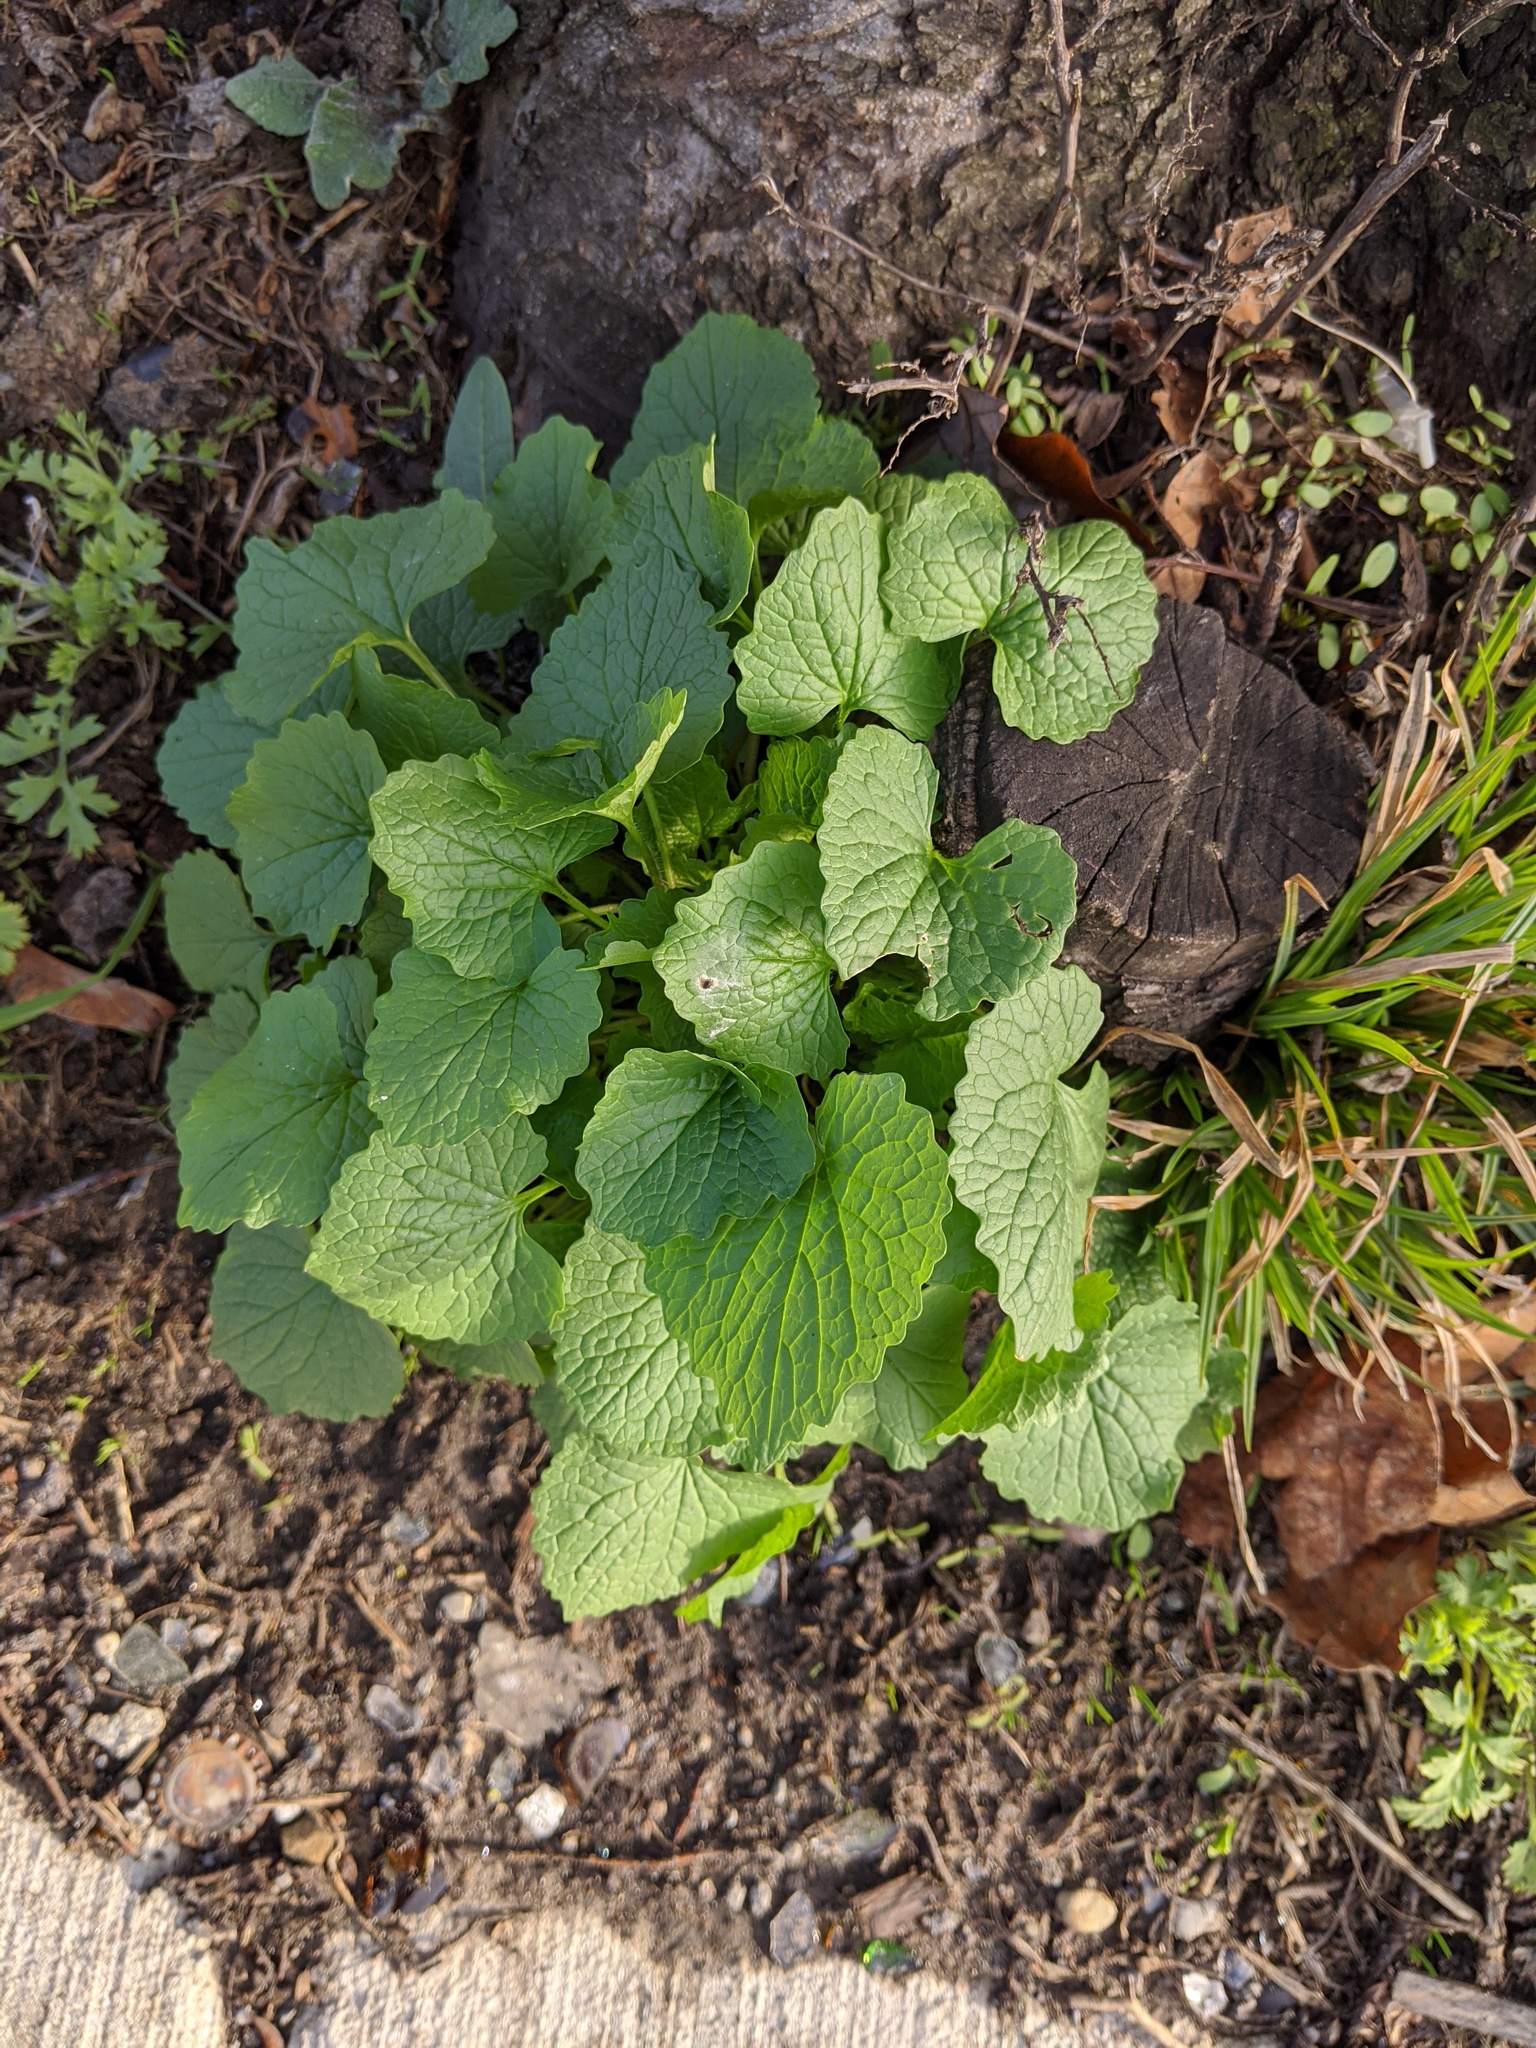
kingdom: Plantae
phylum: Tracheophyta
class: Magnoliopsida
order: Brassicales
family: Brassicaceae
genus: Alliaria
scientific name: Alliaria petiolata
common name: Garlic mustard
